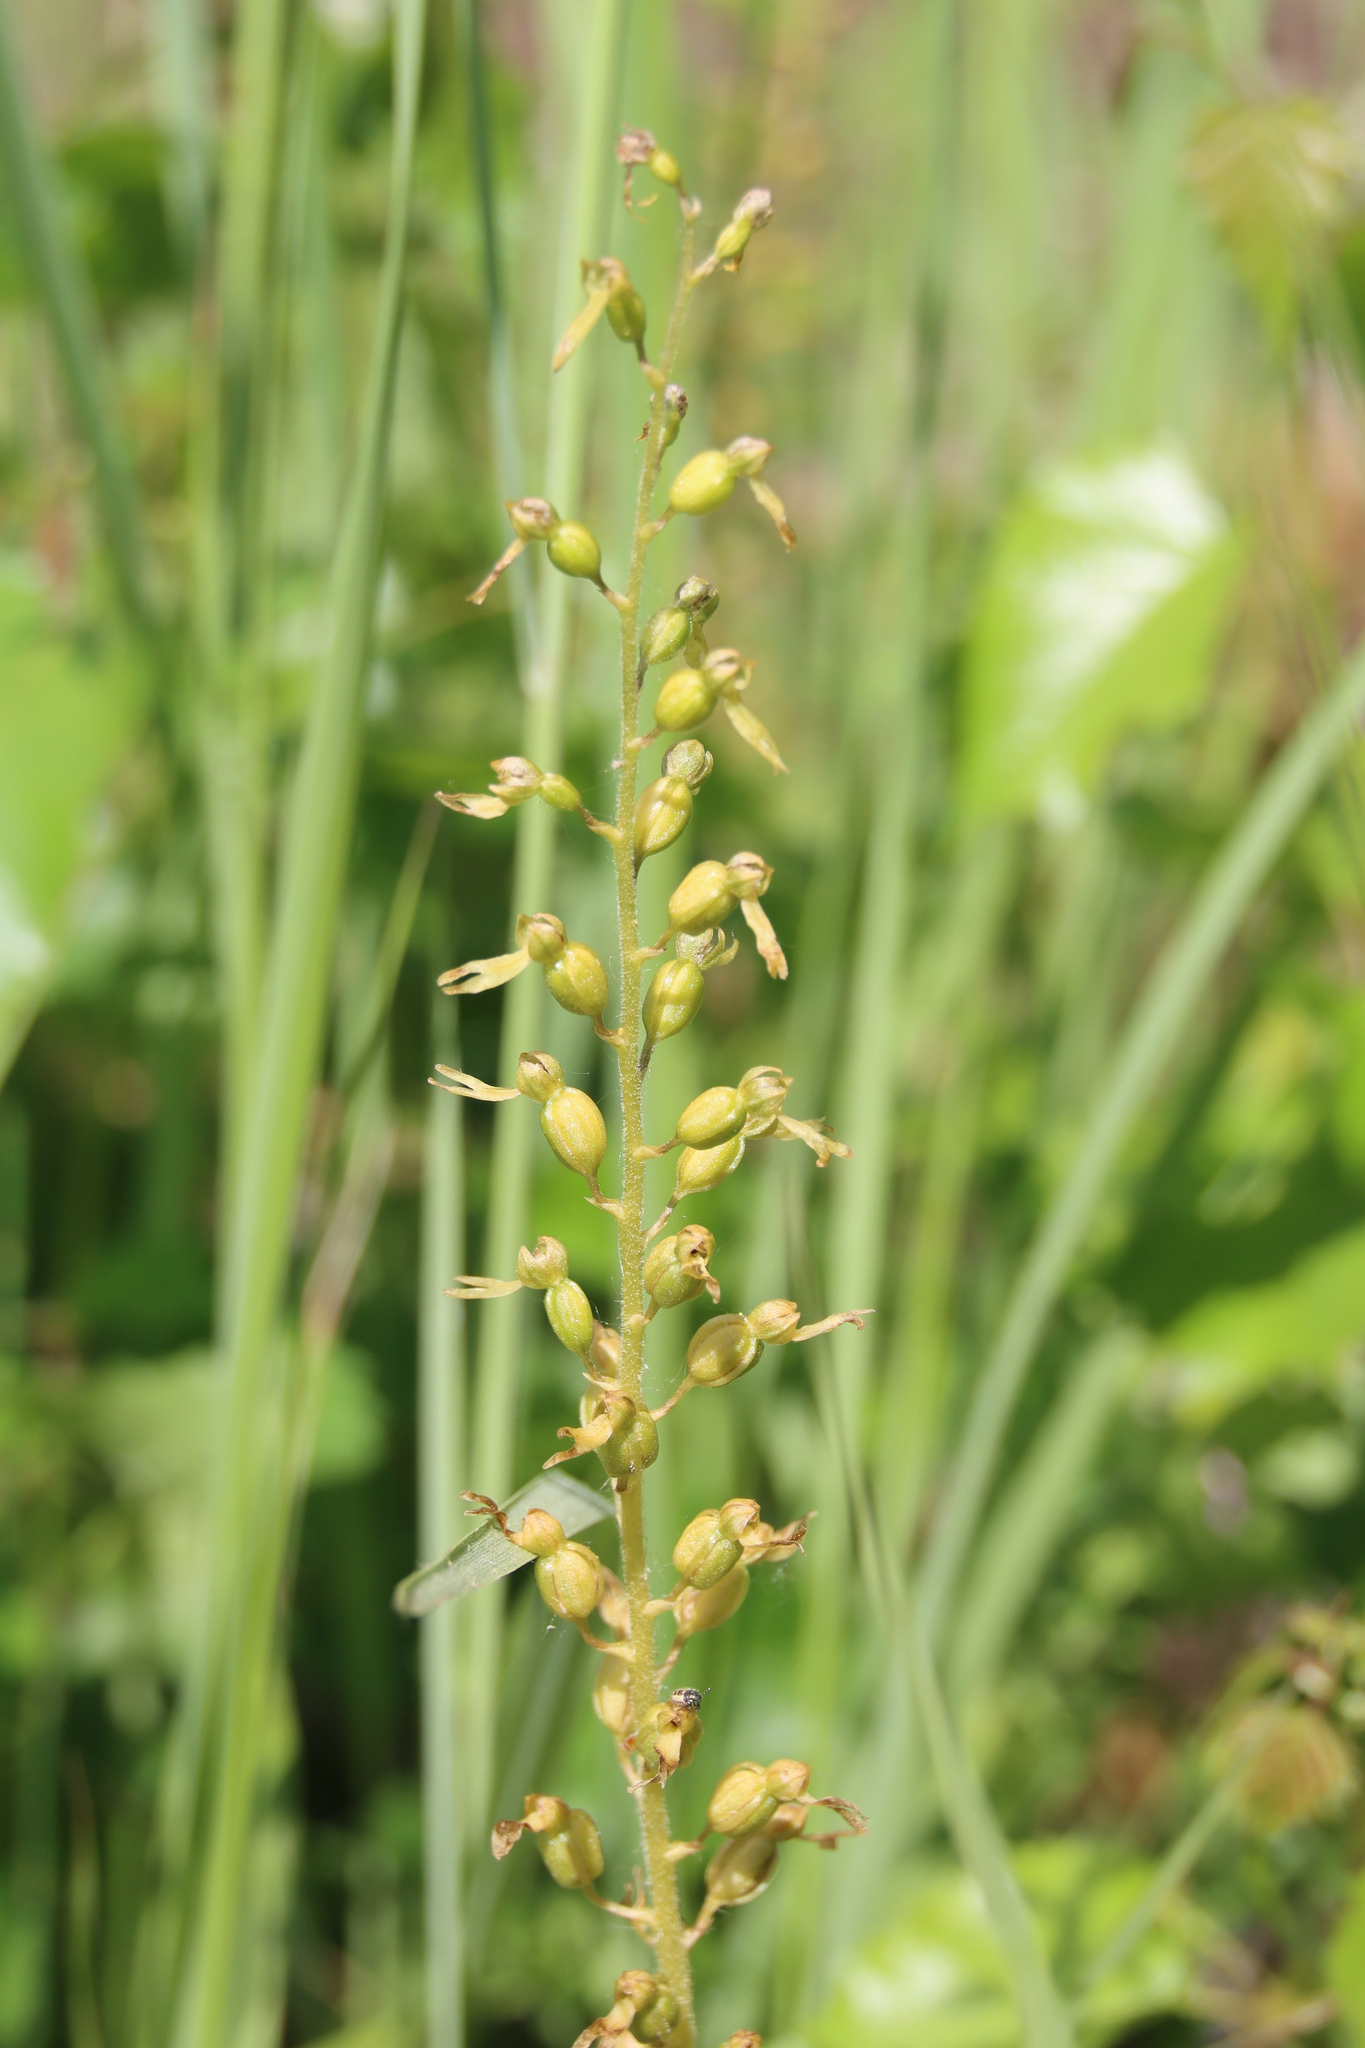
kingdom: Plantae
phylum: Tracheophyta
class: Liliopsida
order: Asparagales
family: Orchidaceae
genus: Neottia
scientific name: Neottia ovata
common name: Common twayblade
